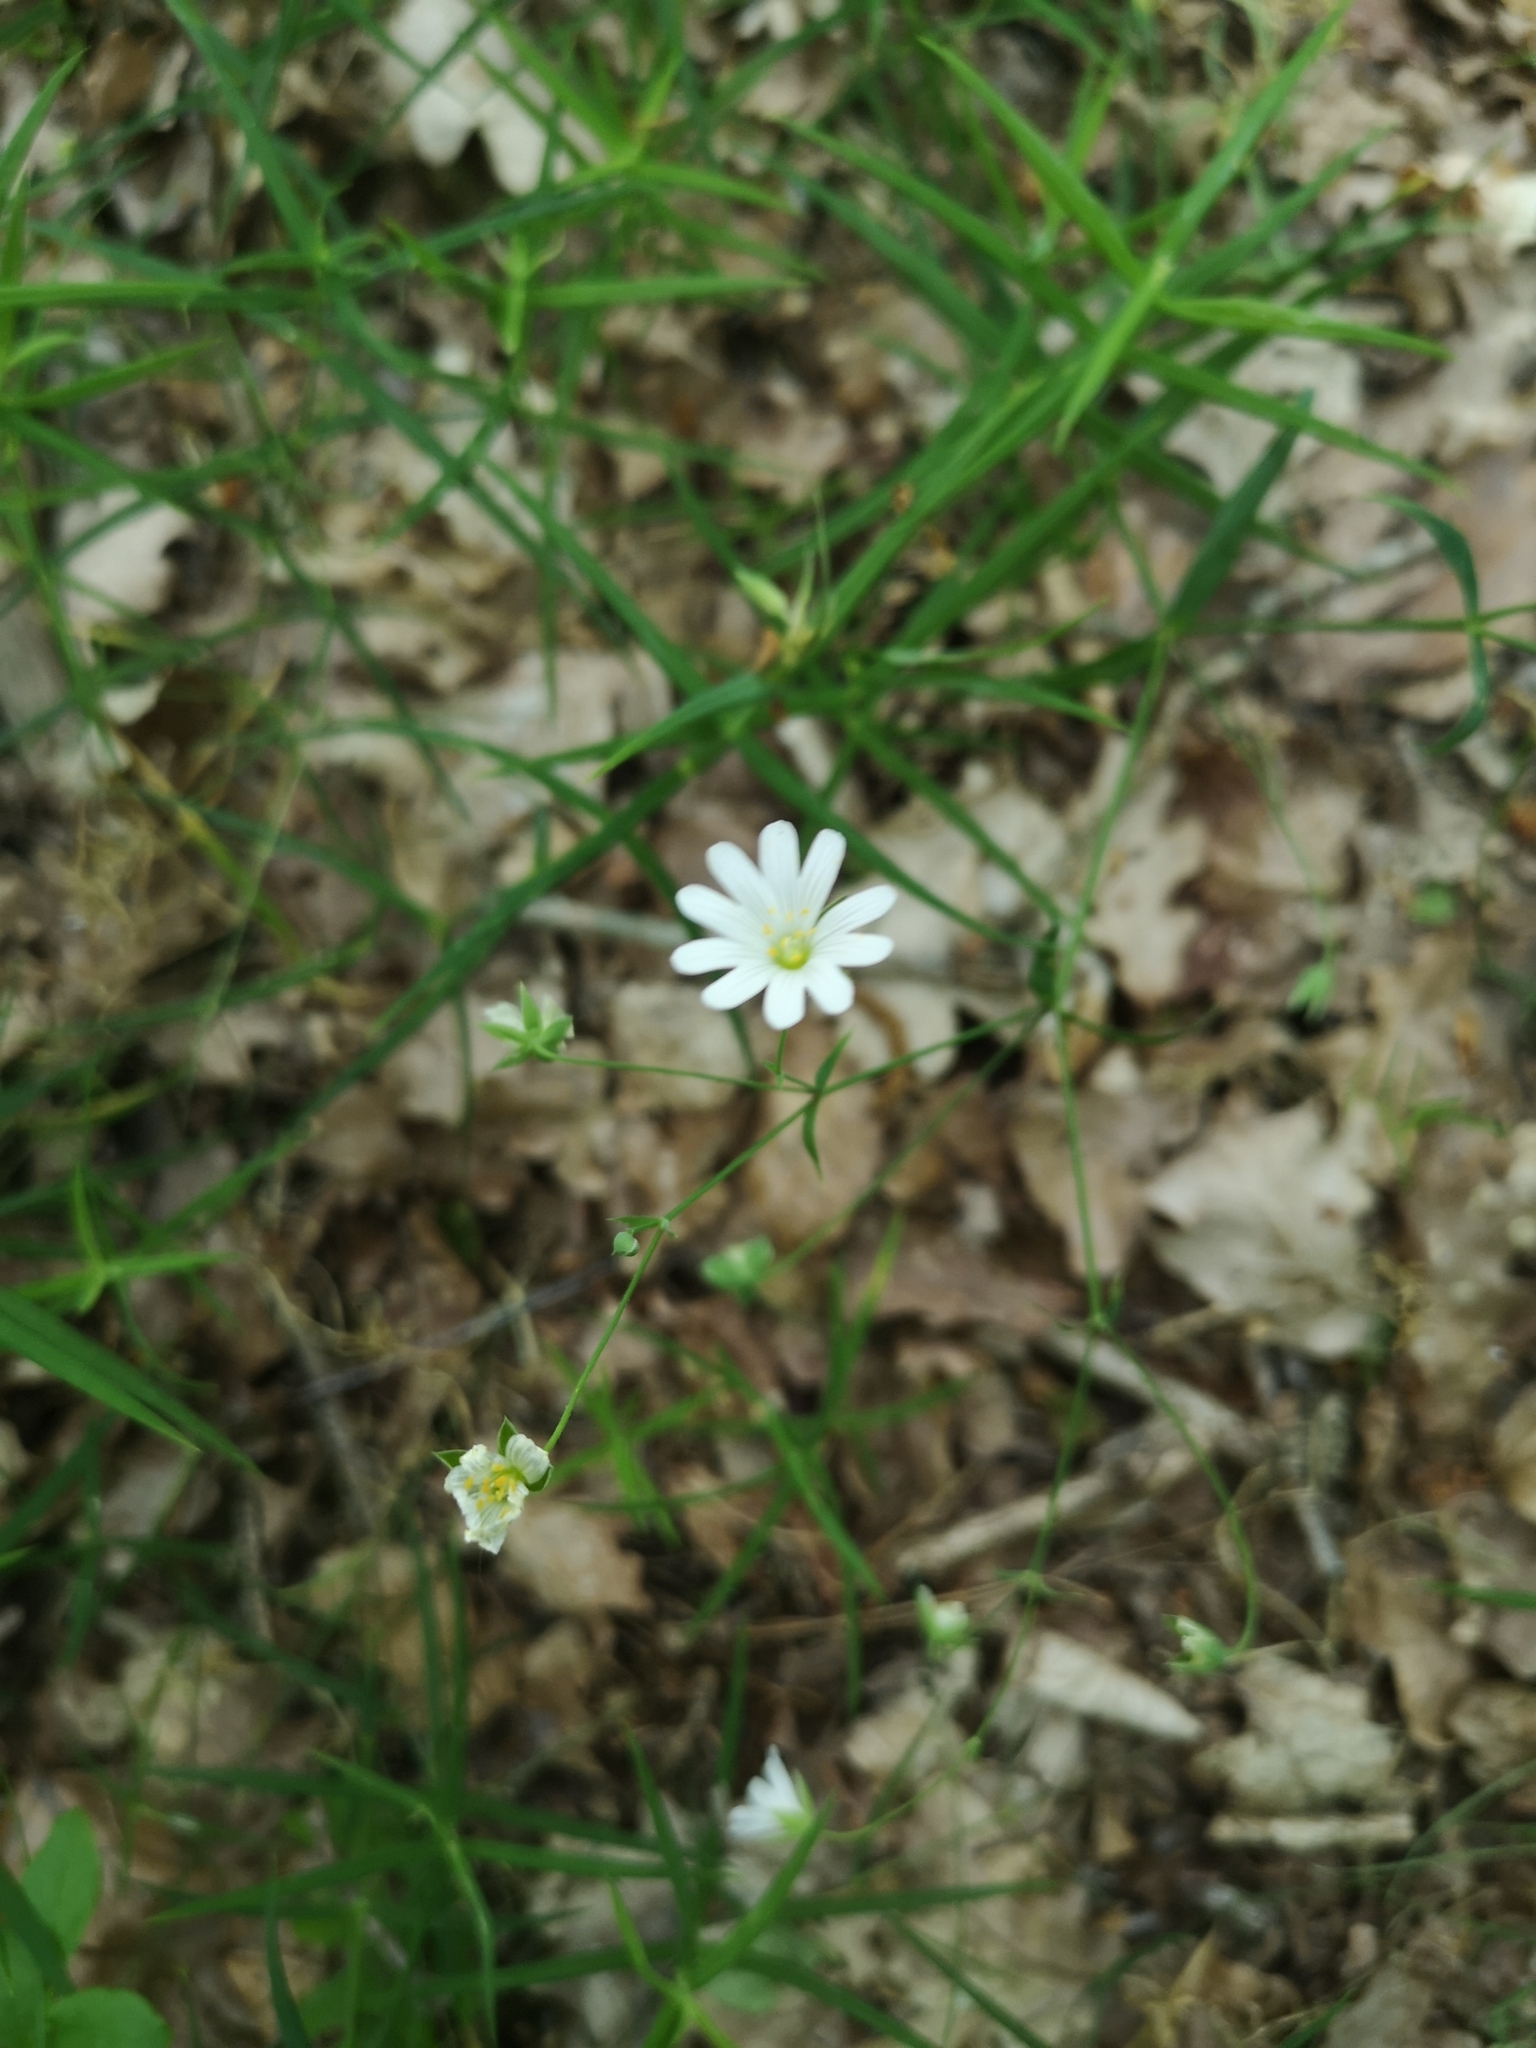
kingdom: Plantae
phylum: Tracheophyta
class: Magnoliopsida
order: Caryophyllales
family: Caryophyllaceae
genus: Rabelera
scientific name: Rabelera holostea
